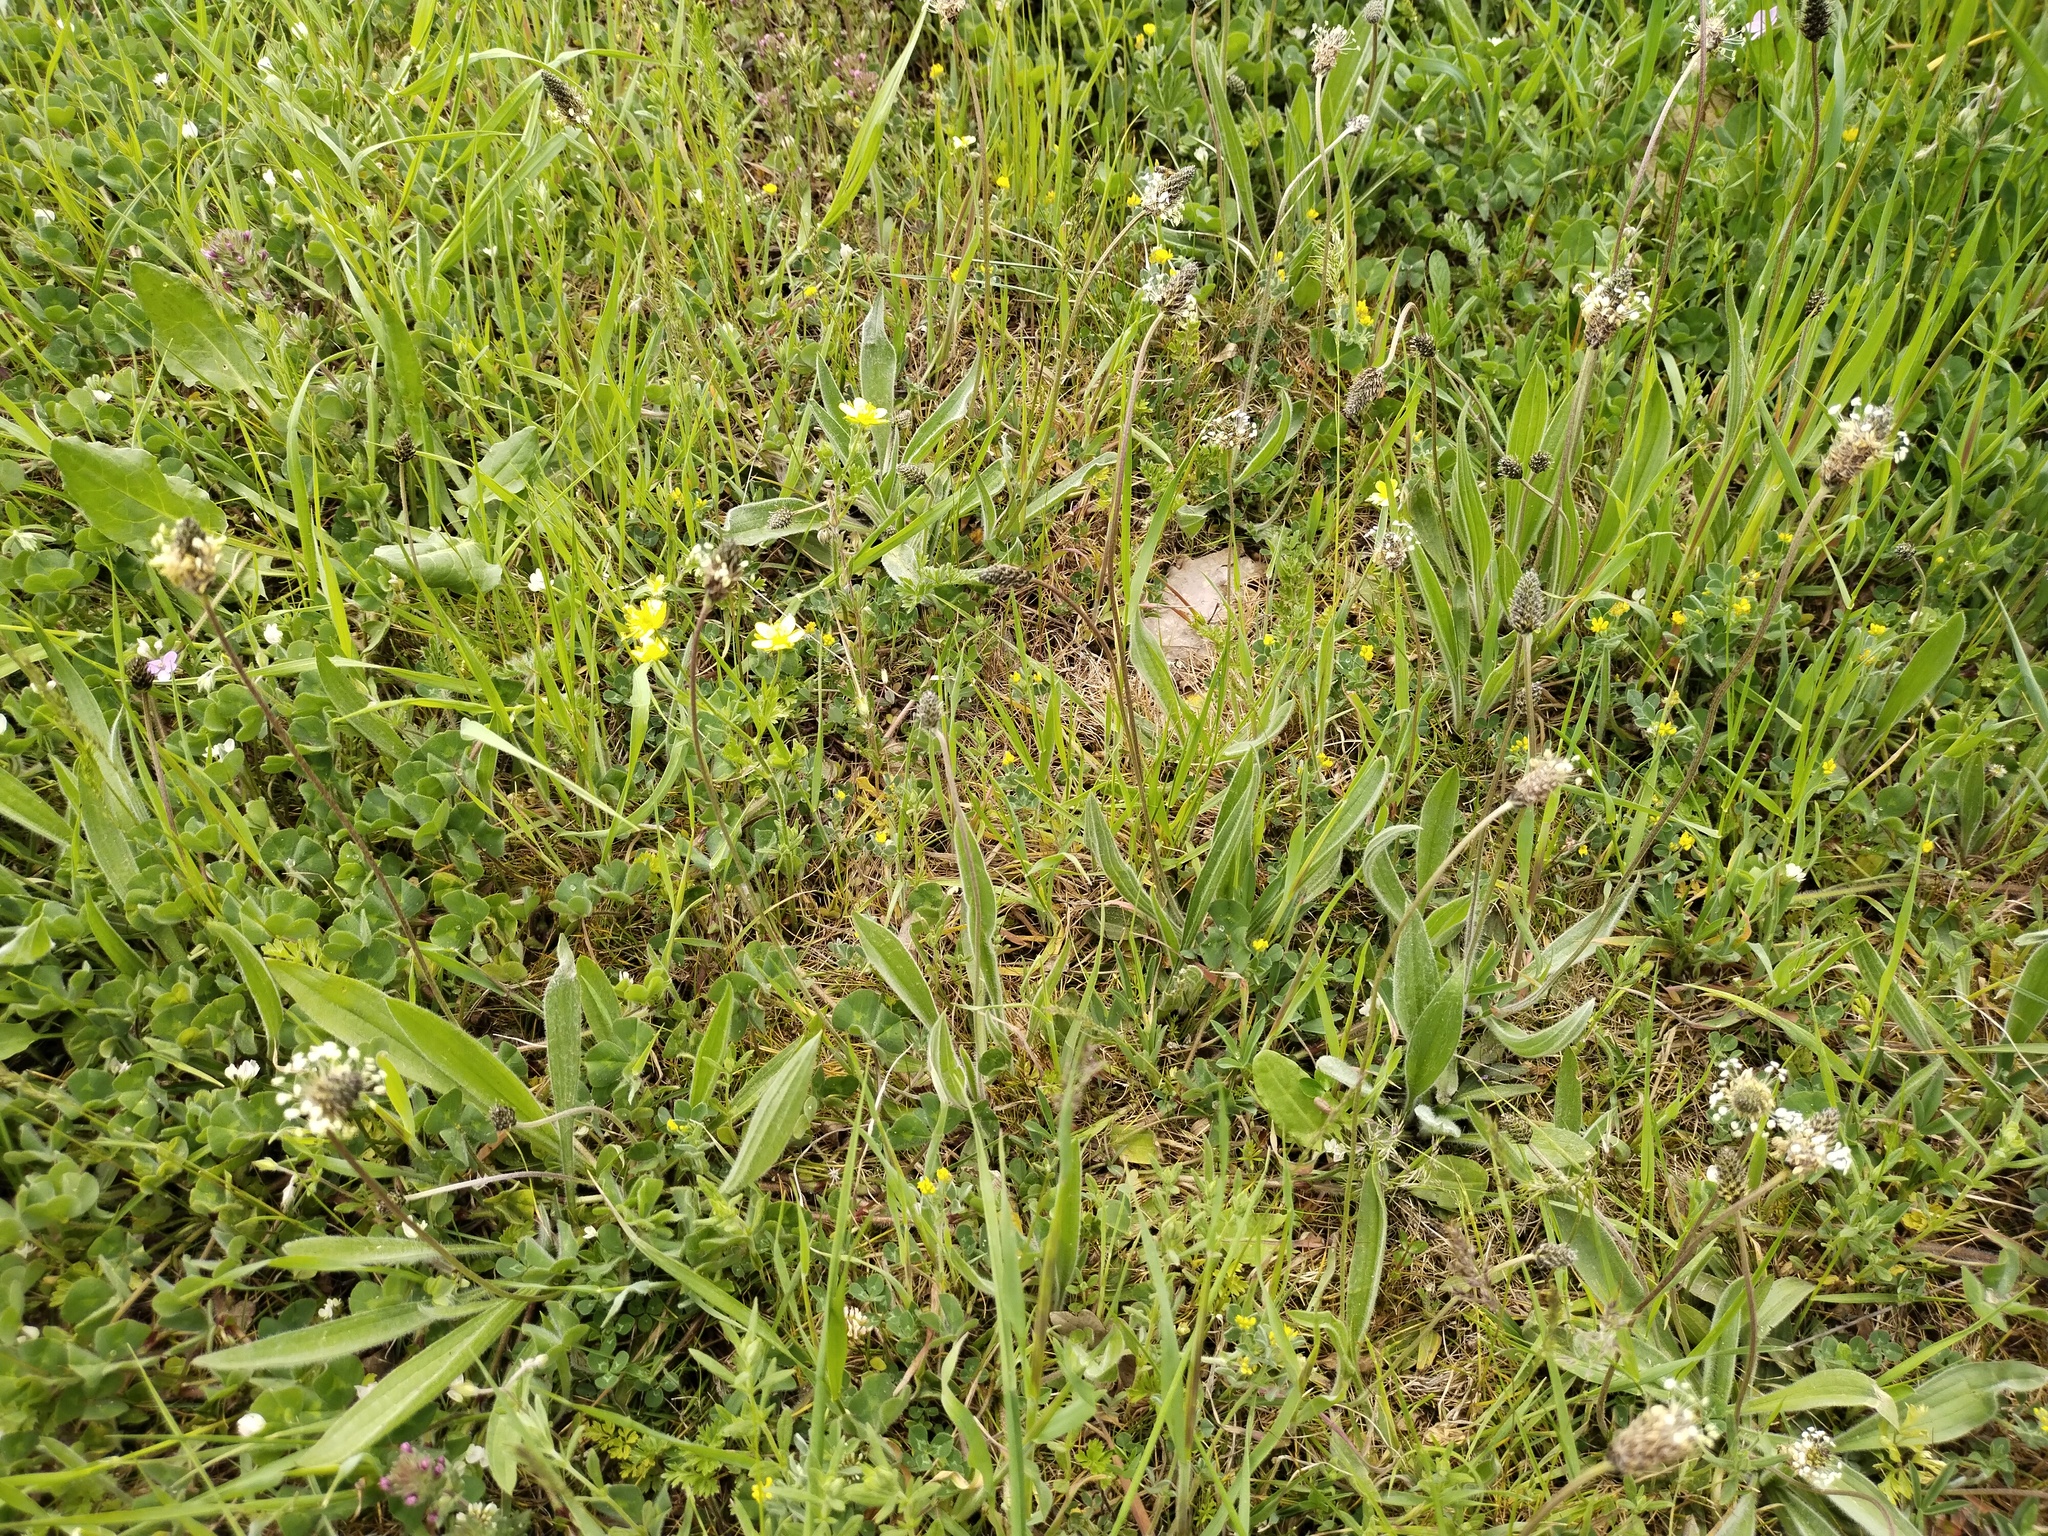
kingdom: Plantae
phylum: Tracheophyta
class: Magnoliopsida
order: Lamiales
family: Plantaginaceae
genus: Plantago
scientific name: Plantago lanceolata
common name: Ribwort plantain
